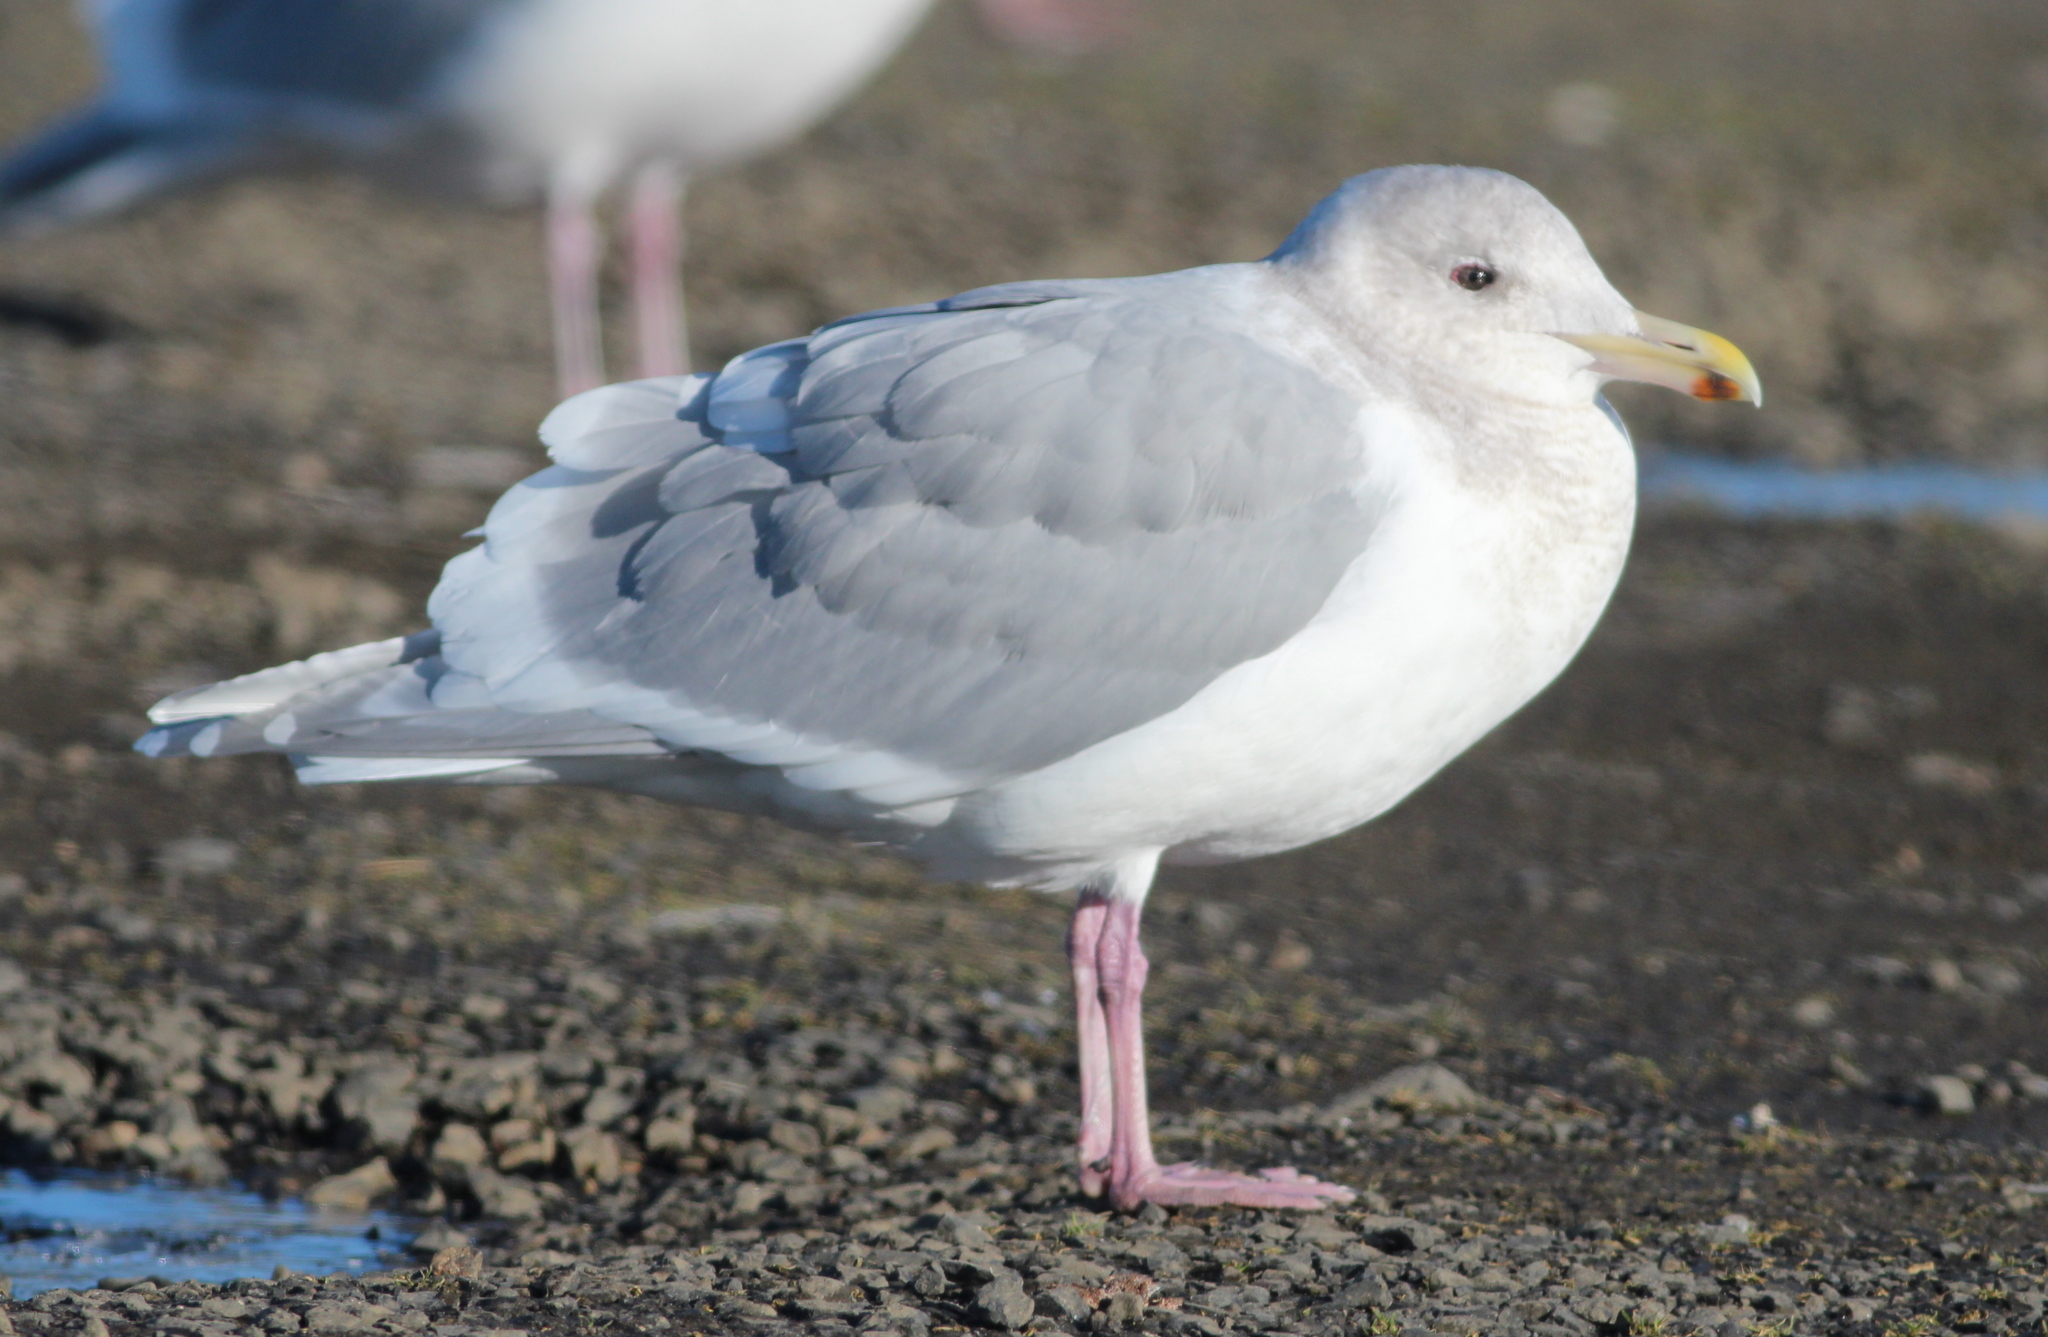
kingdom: Animalia
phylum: Chordata
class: Aves
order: Charadriiformes
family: Laridae
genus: Larus
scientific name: Larus glaucescens
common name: Glaucous-winged gull
